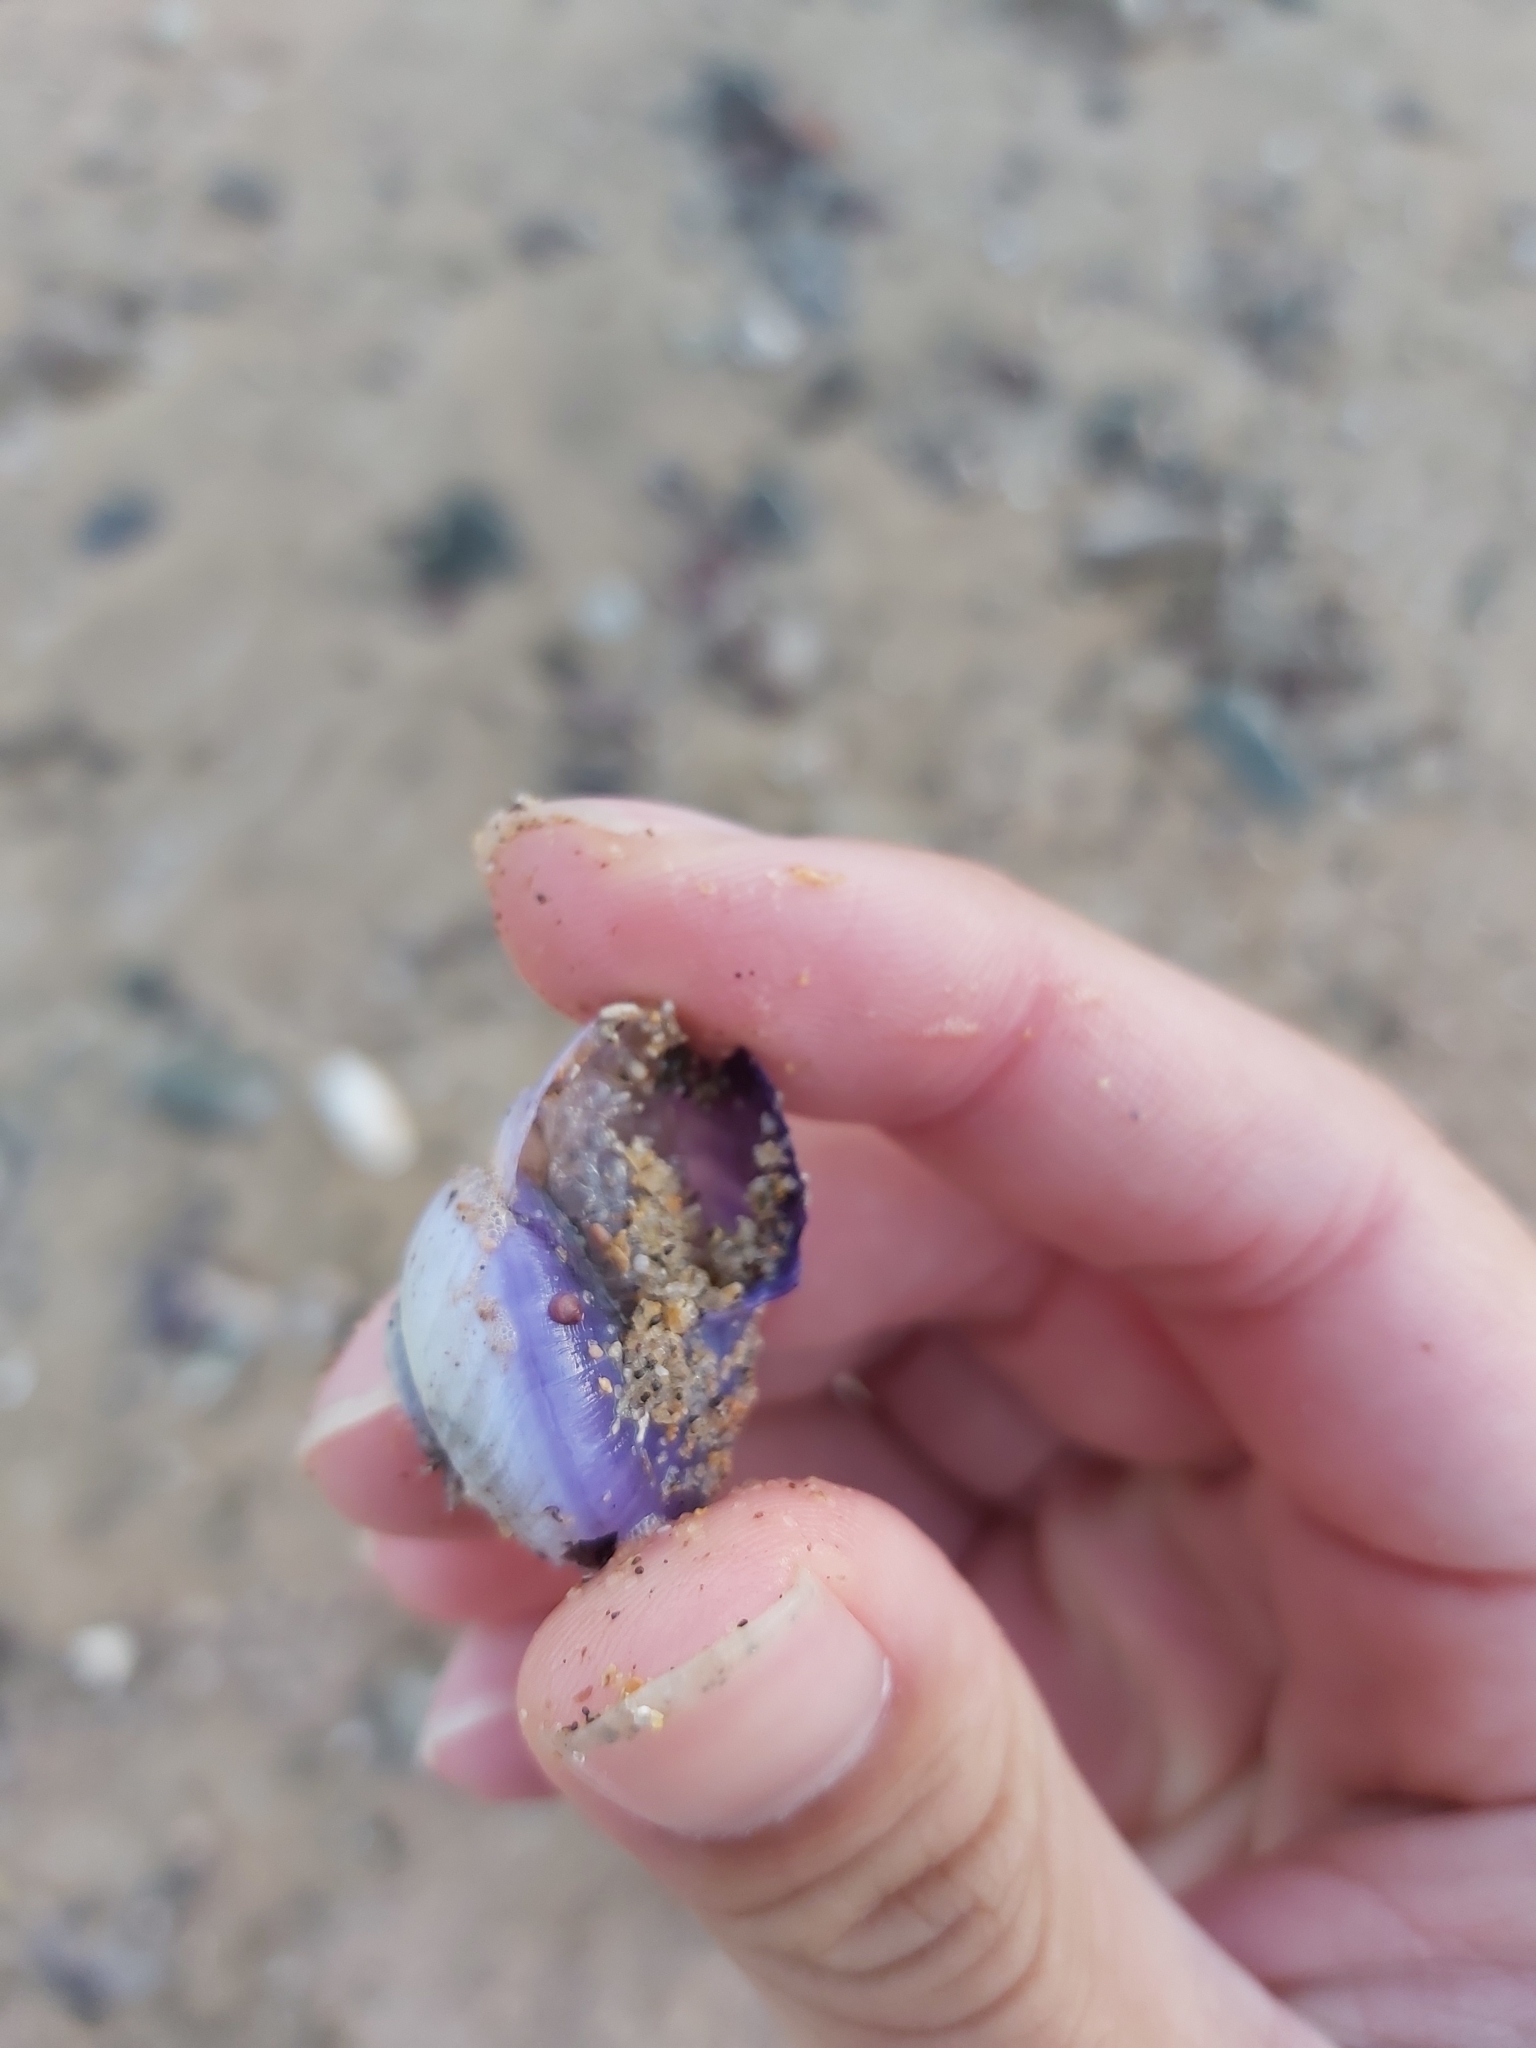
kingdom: Animalia
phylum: Mollusca
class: Gastropoda
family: Epitoniidae
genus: Janthina
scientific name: Janthina janthina
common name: Common janthina
